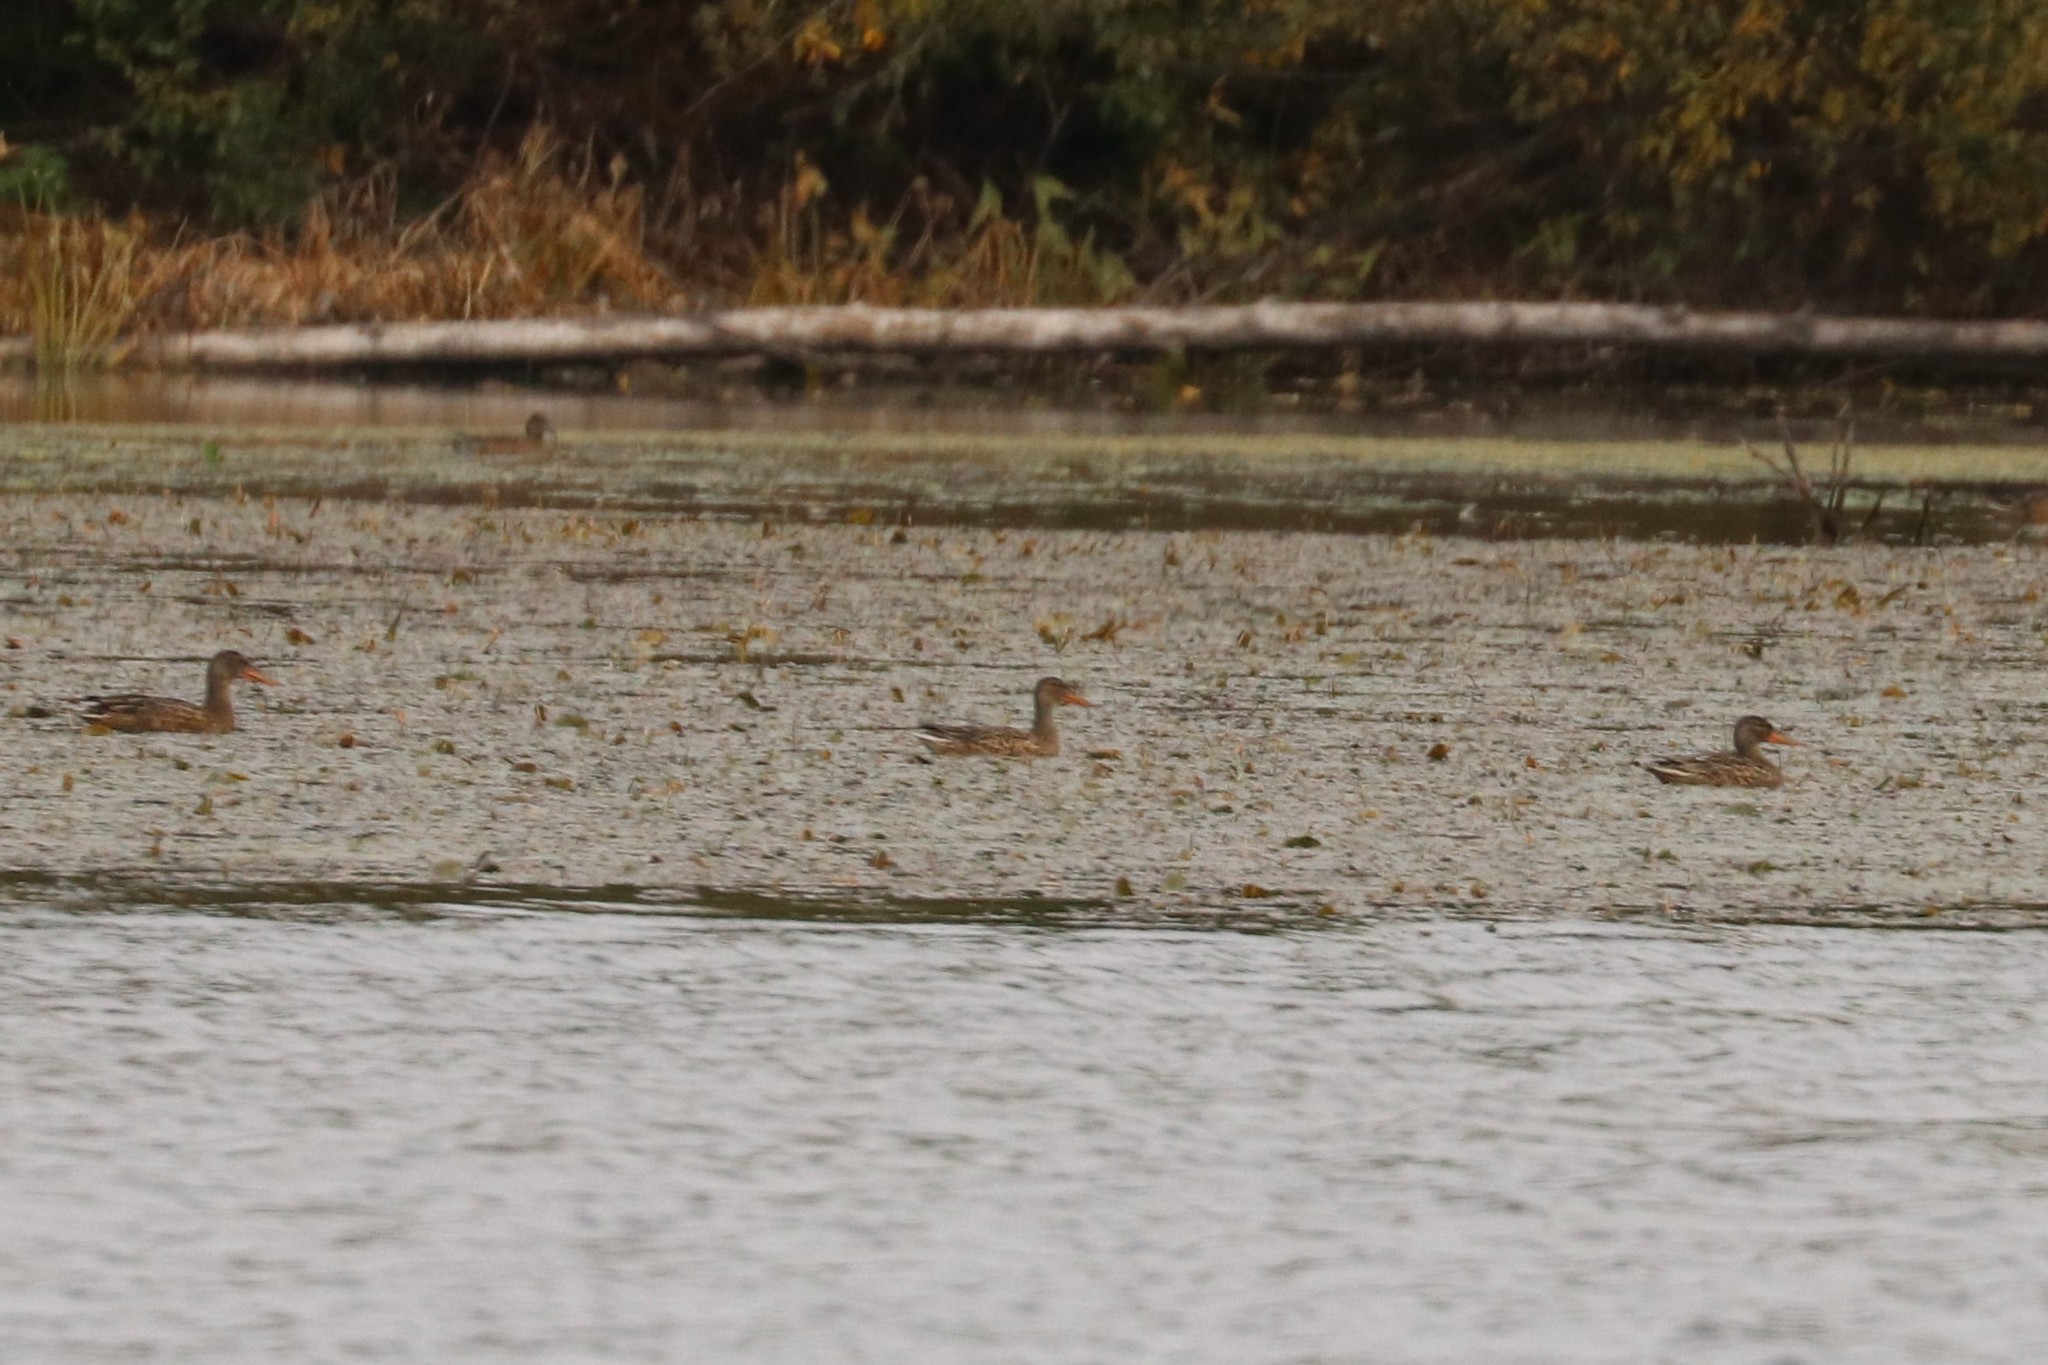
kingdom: Animalia
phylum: Chordata
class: Aves
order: Anseriformes
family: Anatidae
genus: Spatula
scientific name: Spatula clypeata
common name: Northern shoveler
